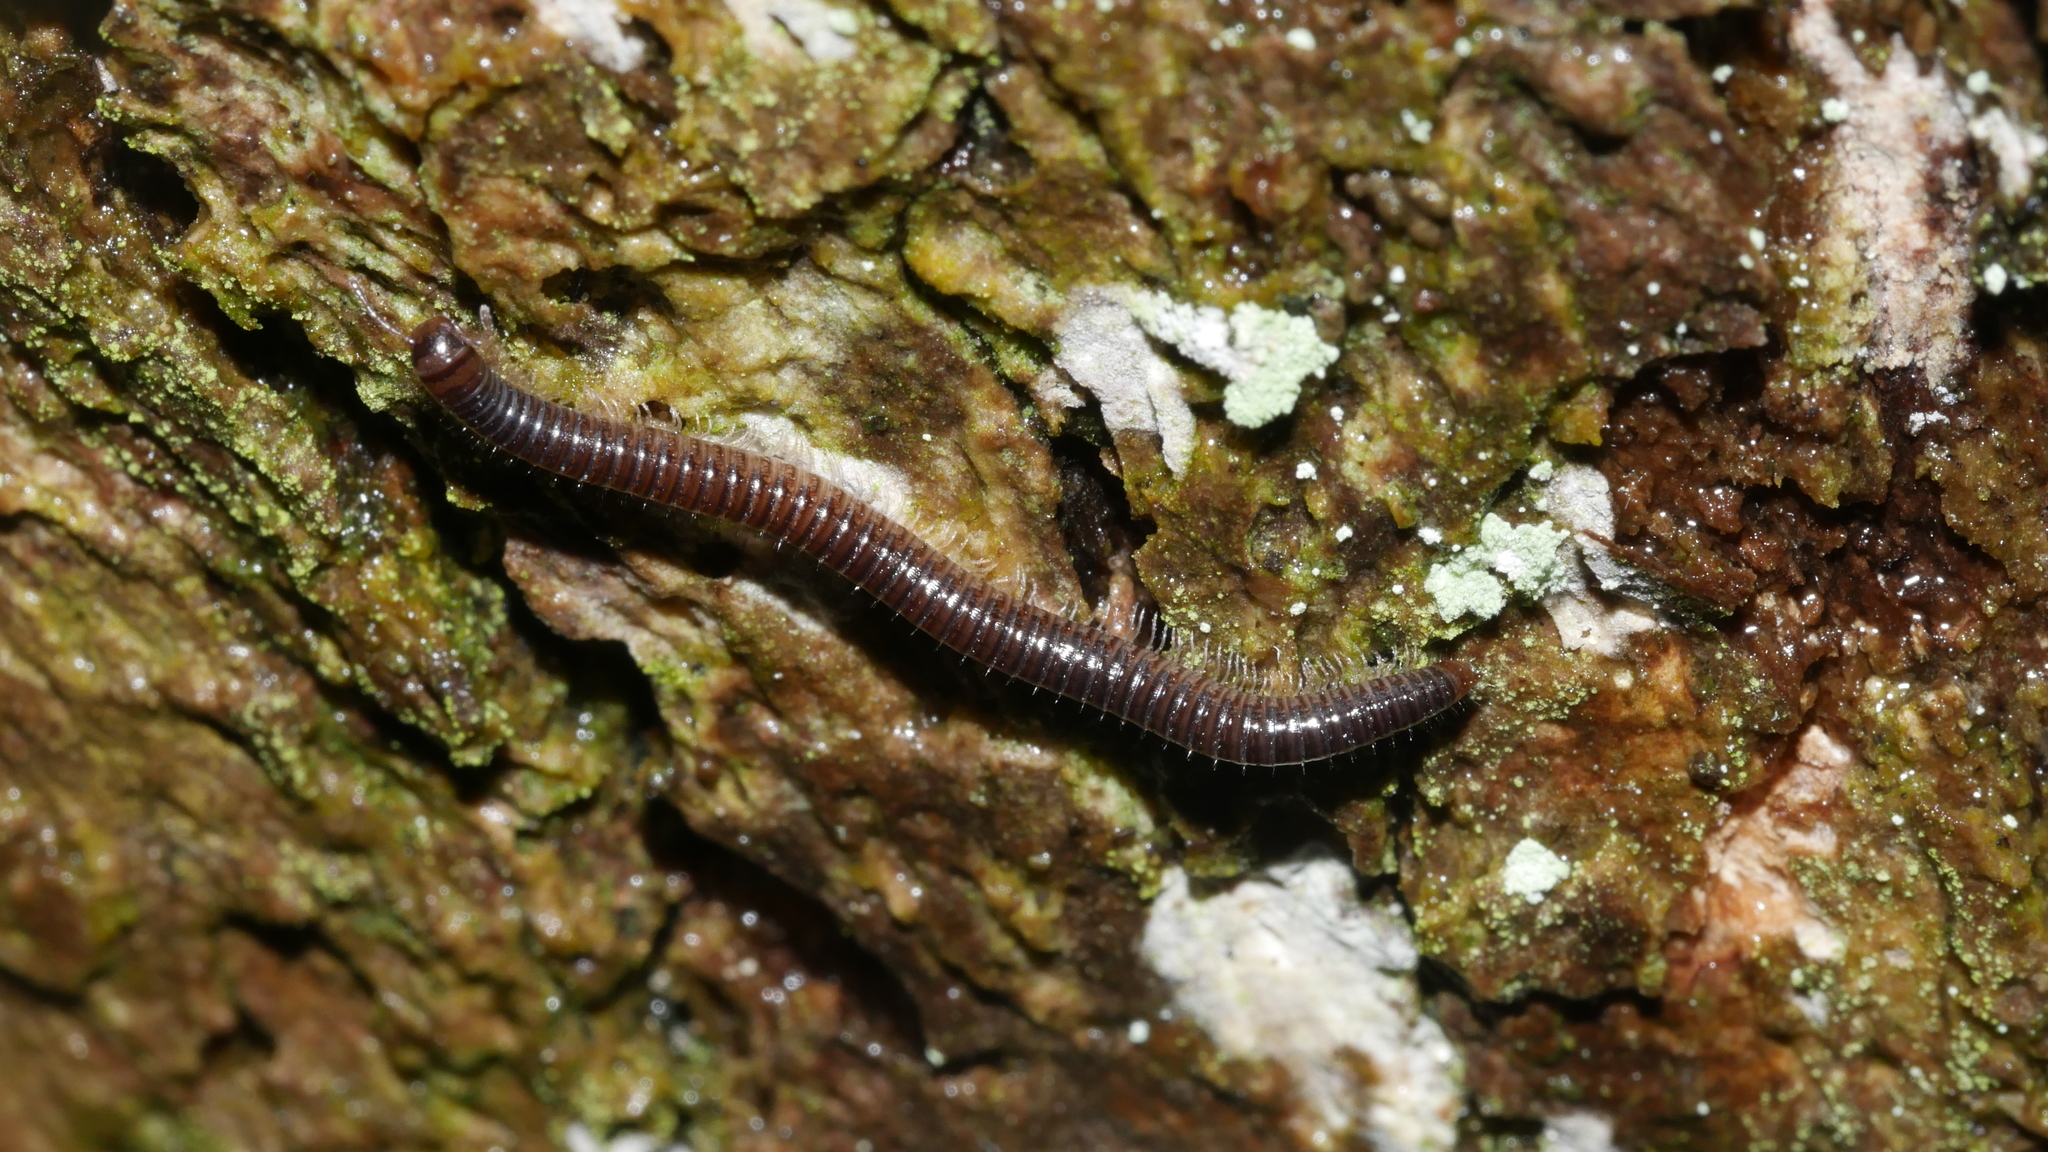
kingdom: Animalia
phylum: Arthropoda
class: Diplopoda
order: Julida
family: Julidae
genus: Ophyiulus
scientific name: Ophyiulus pilosus
